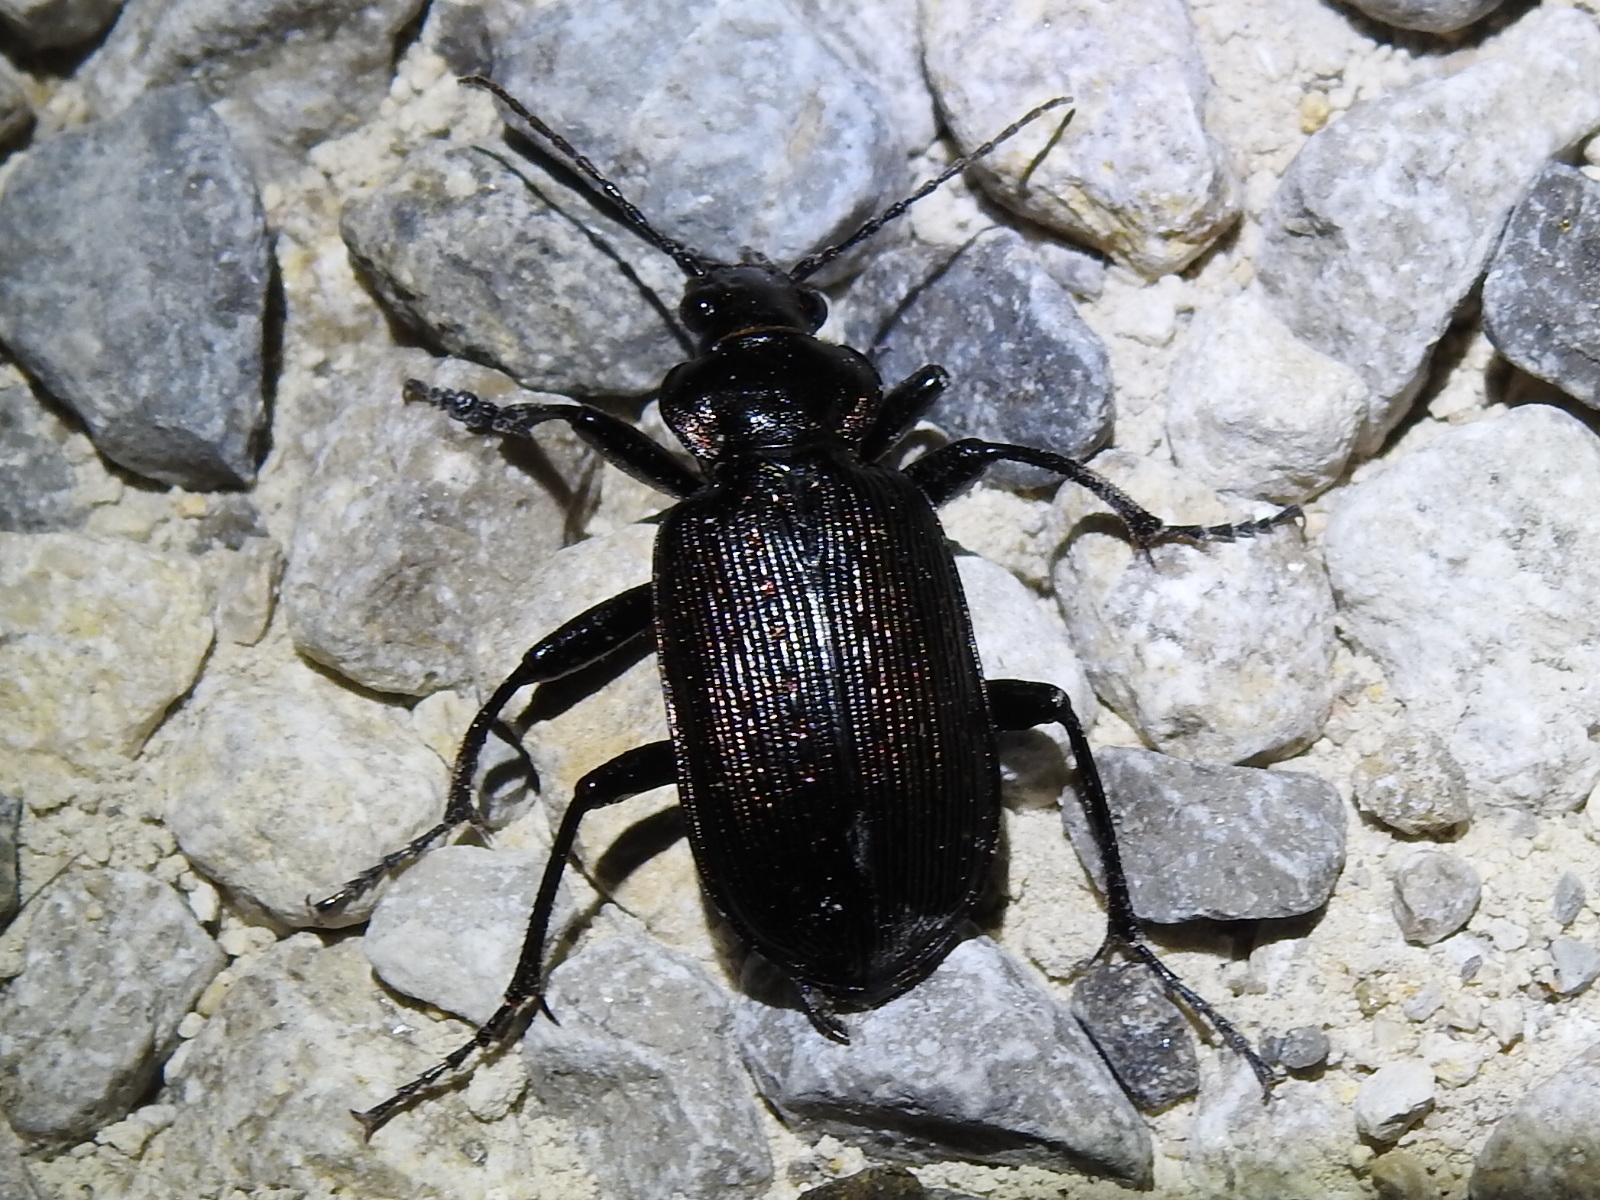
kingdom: Animalia
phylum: Arthropoda
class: Insecta
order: Coleoptera
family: Carabidae
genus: Calosoma
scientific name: Calosoma sayi
